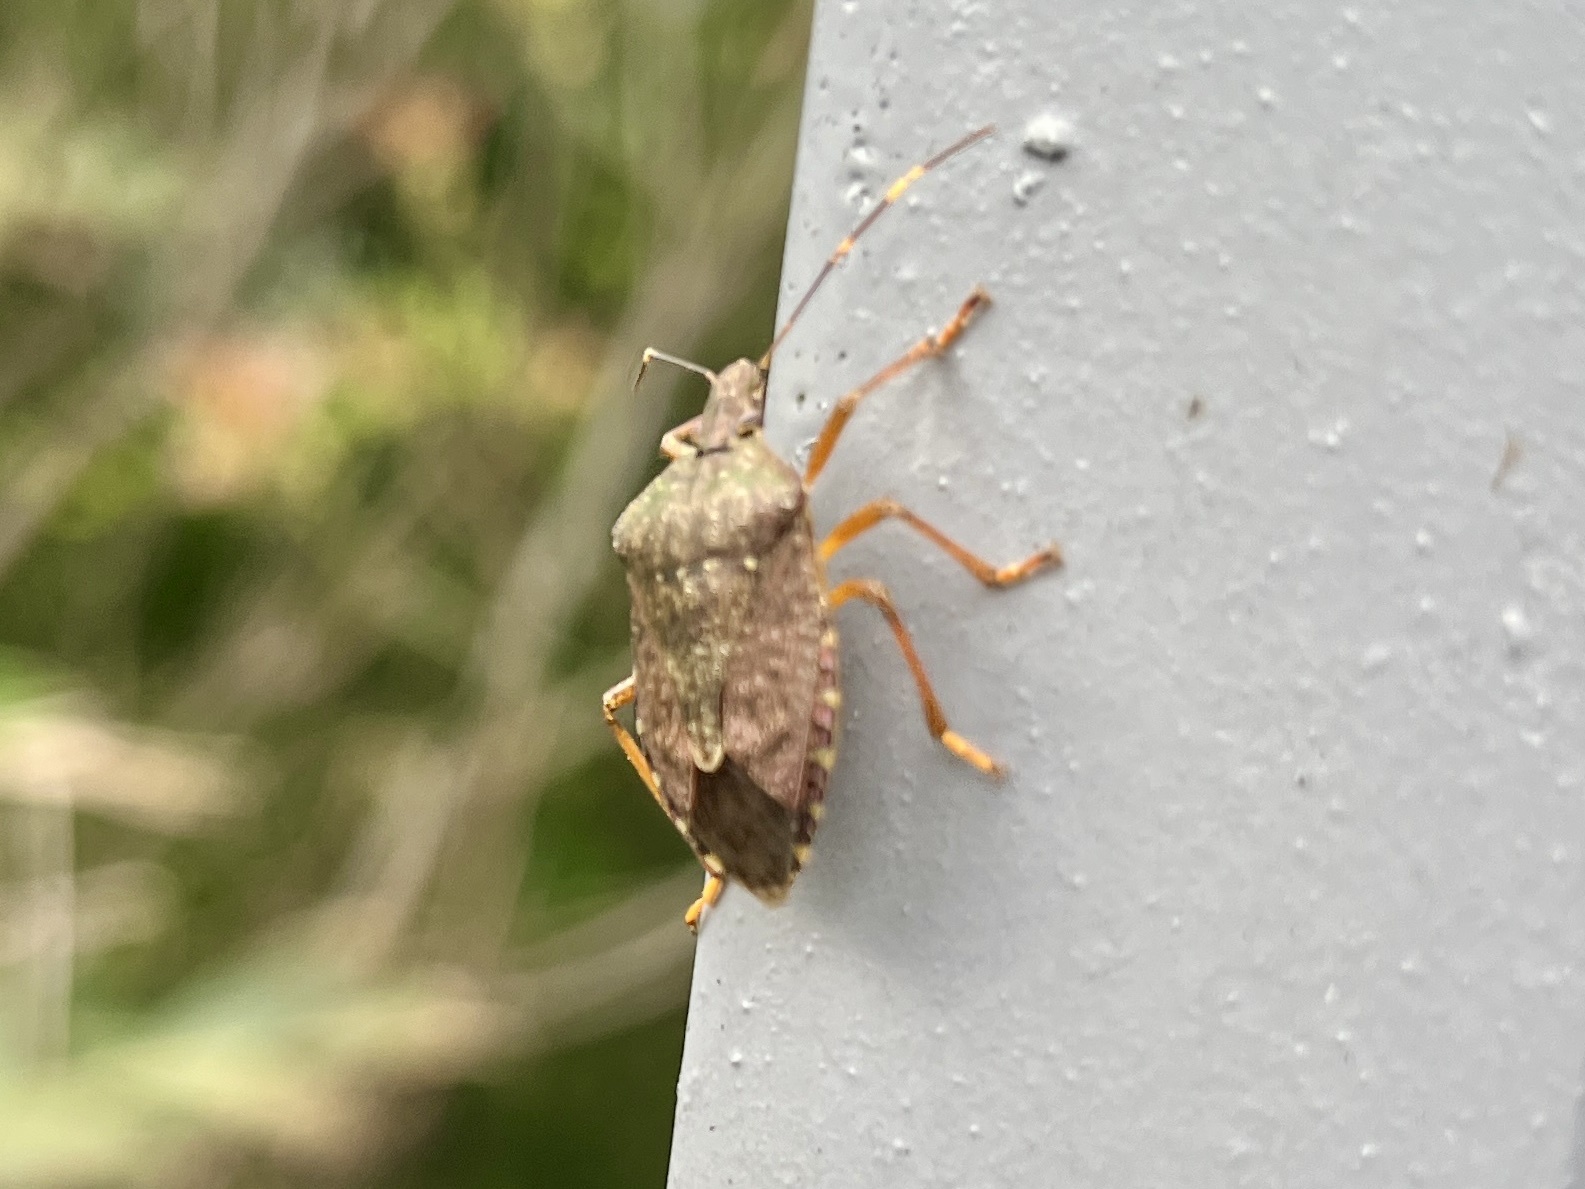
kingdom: Animalia
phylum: Arthropoda
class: Insecta
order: Hemiptera
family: Pentatomidae
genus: Halyomorpha
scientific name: Halyomorpha halys
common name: Brown marmorated stink bug
